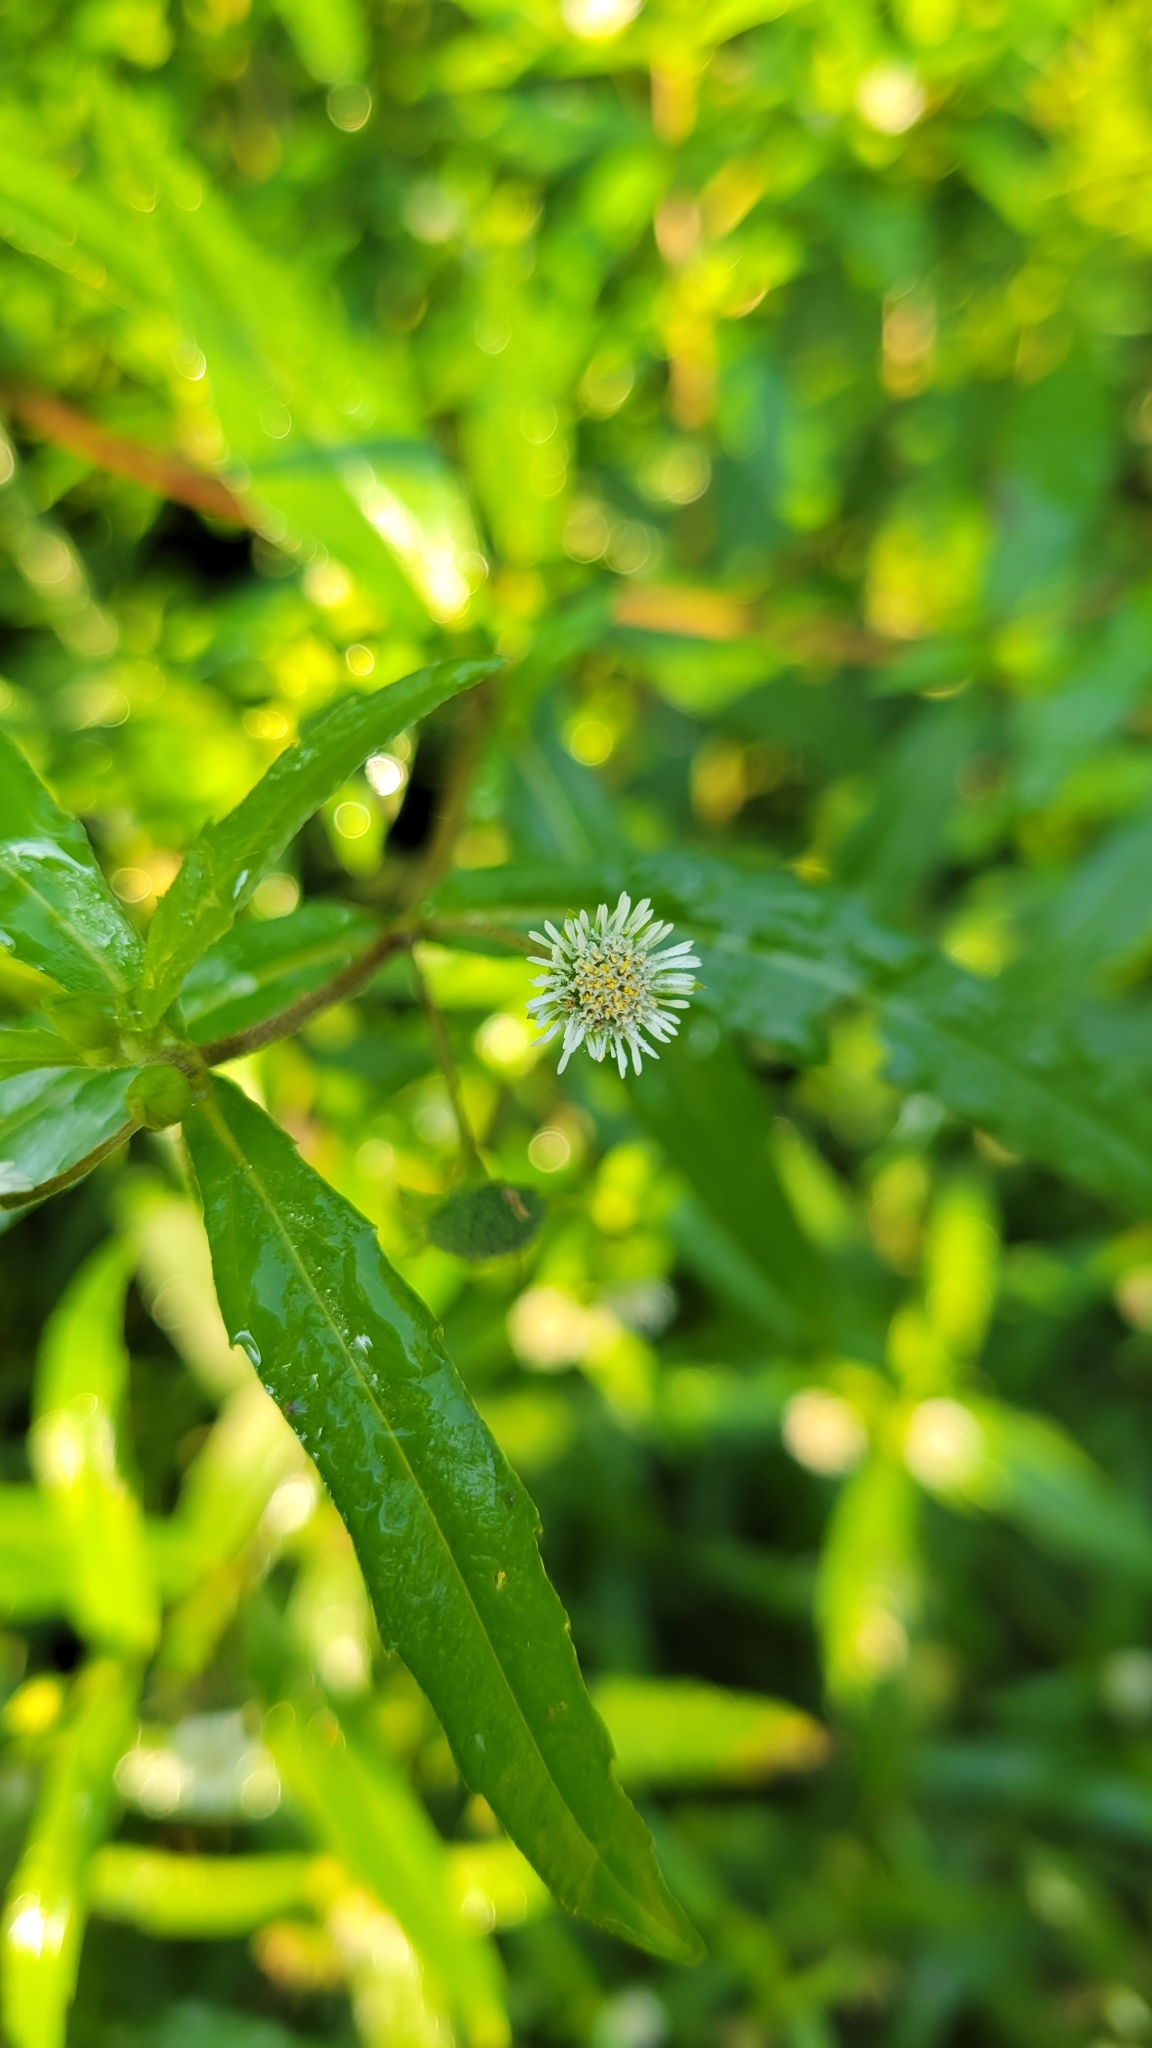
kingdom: Plantae
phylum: Tracheophyta
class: Magnoliopsida
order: Asterales
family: Asteraceae
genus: Eclipta
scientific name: Eclipta prostrata
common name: False daisy
